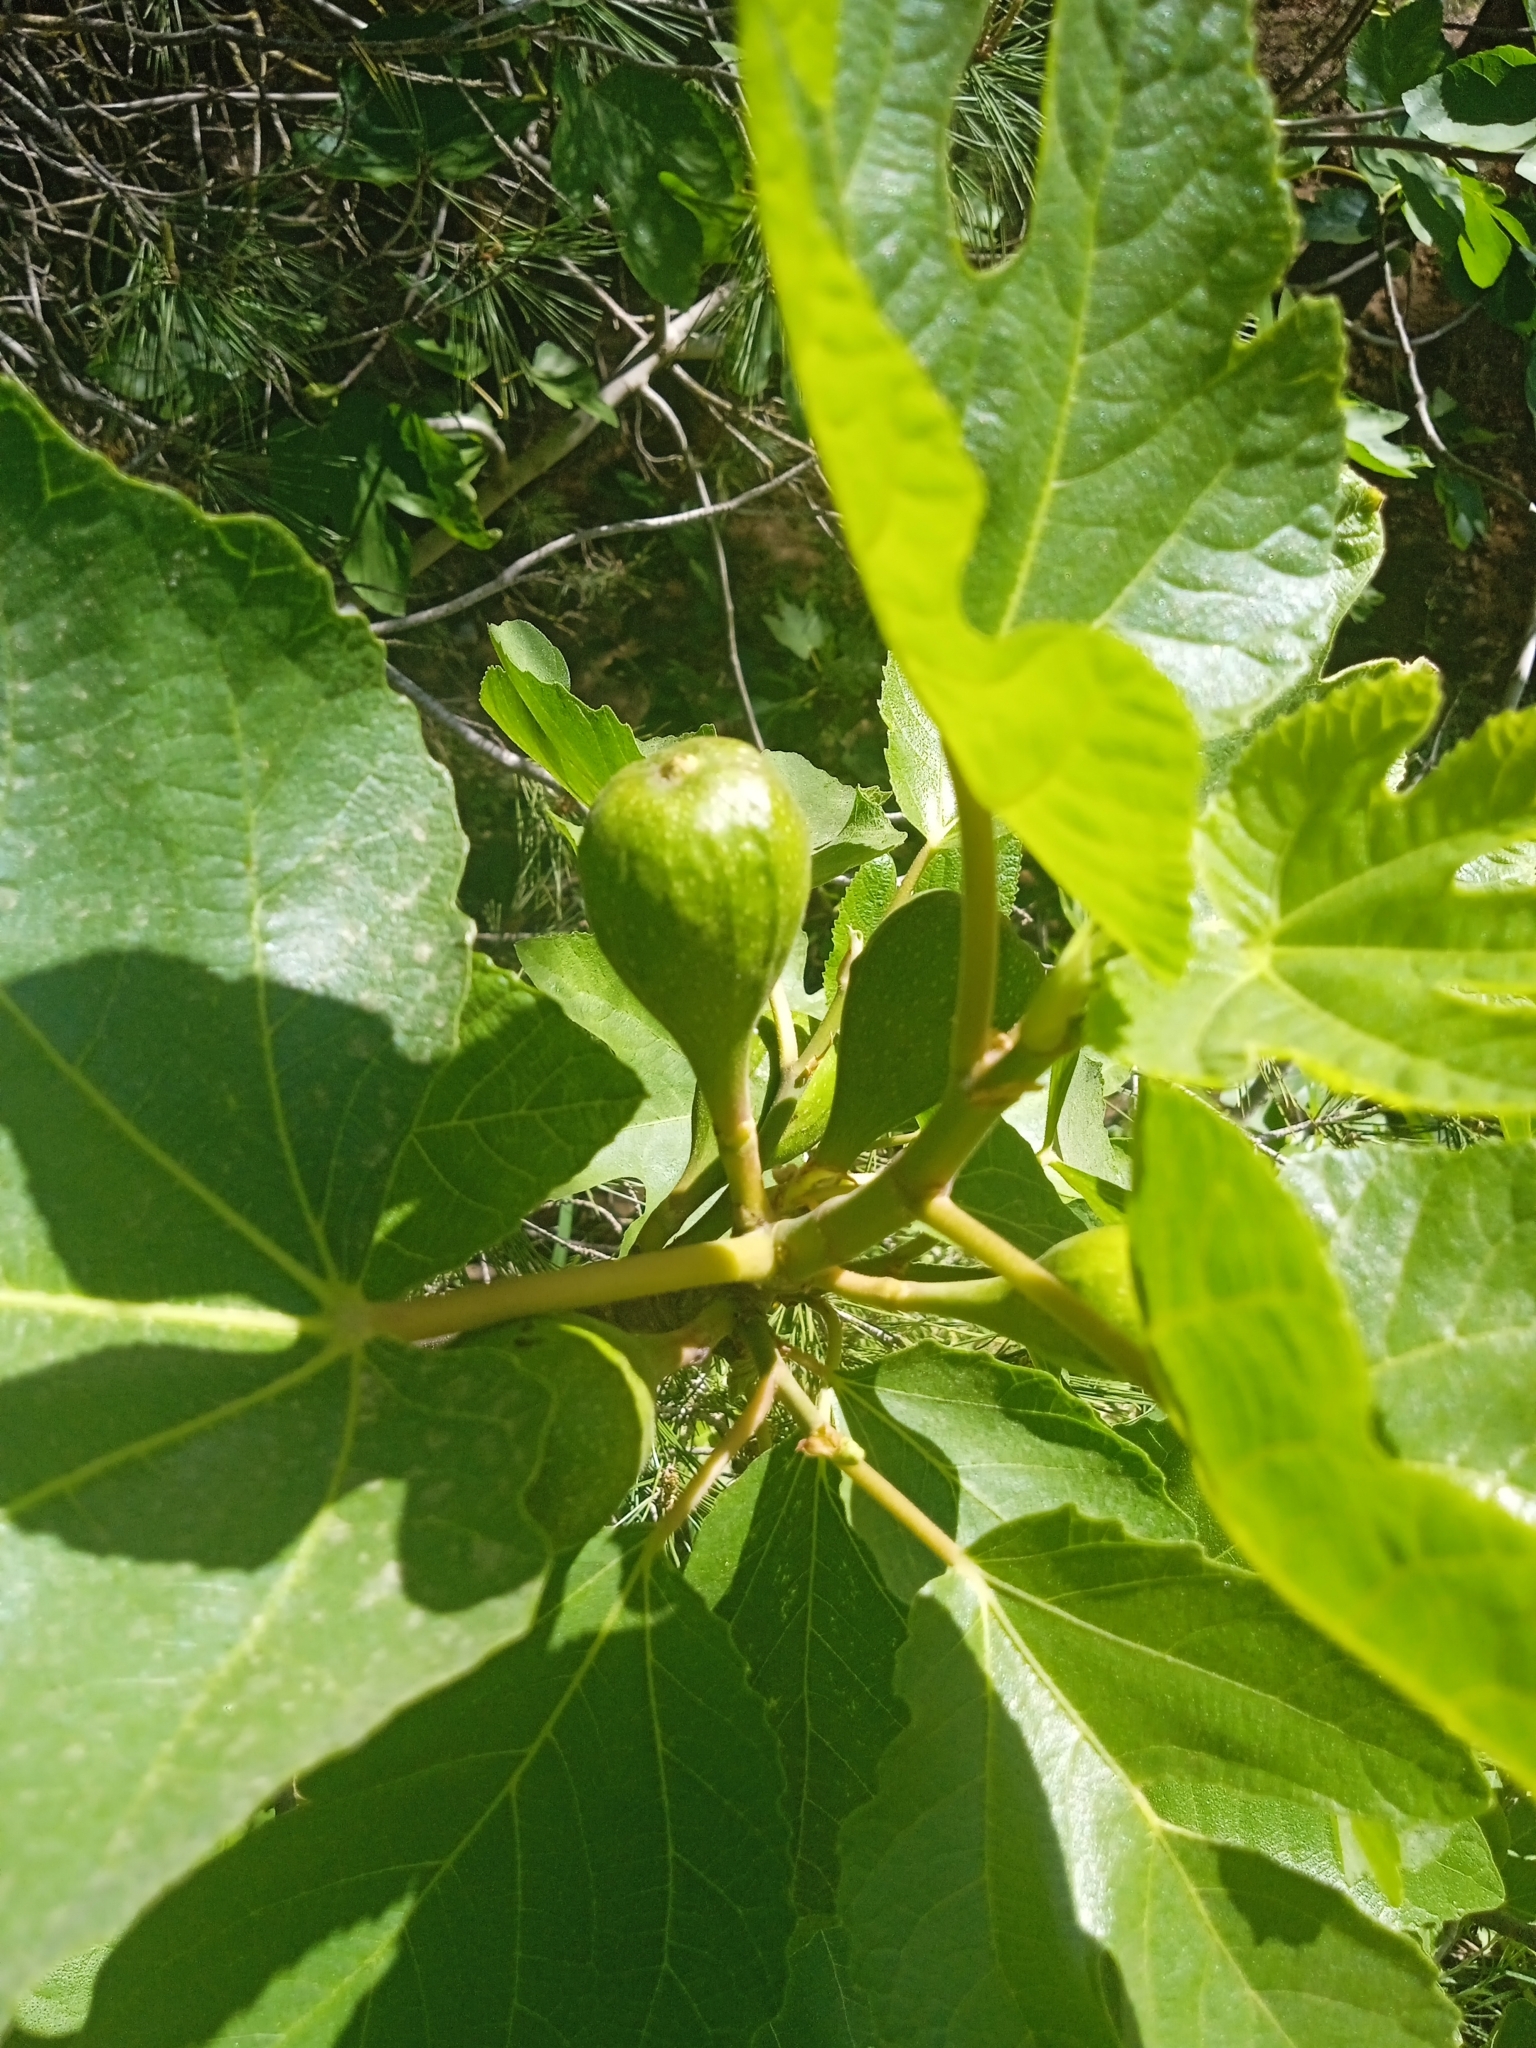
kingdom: Plantae
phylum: Tracheophyta
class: Magnoliopsida
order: Rosales
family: Moraceae
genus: Ficus
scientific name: Ficus carica
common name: Fig
